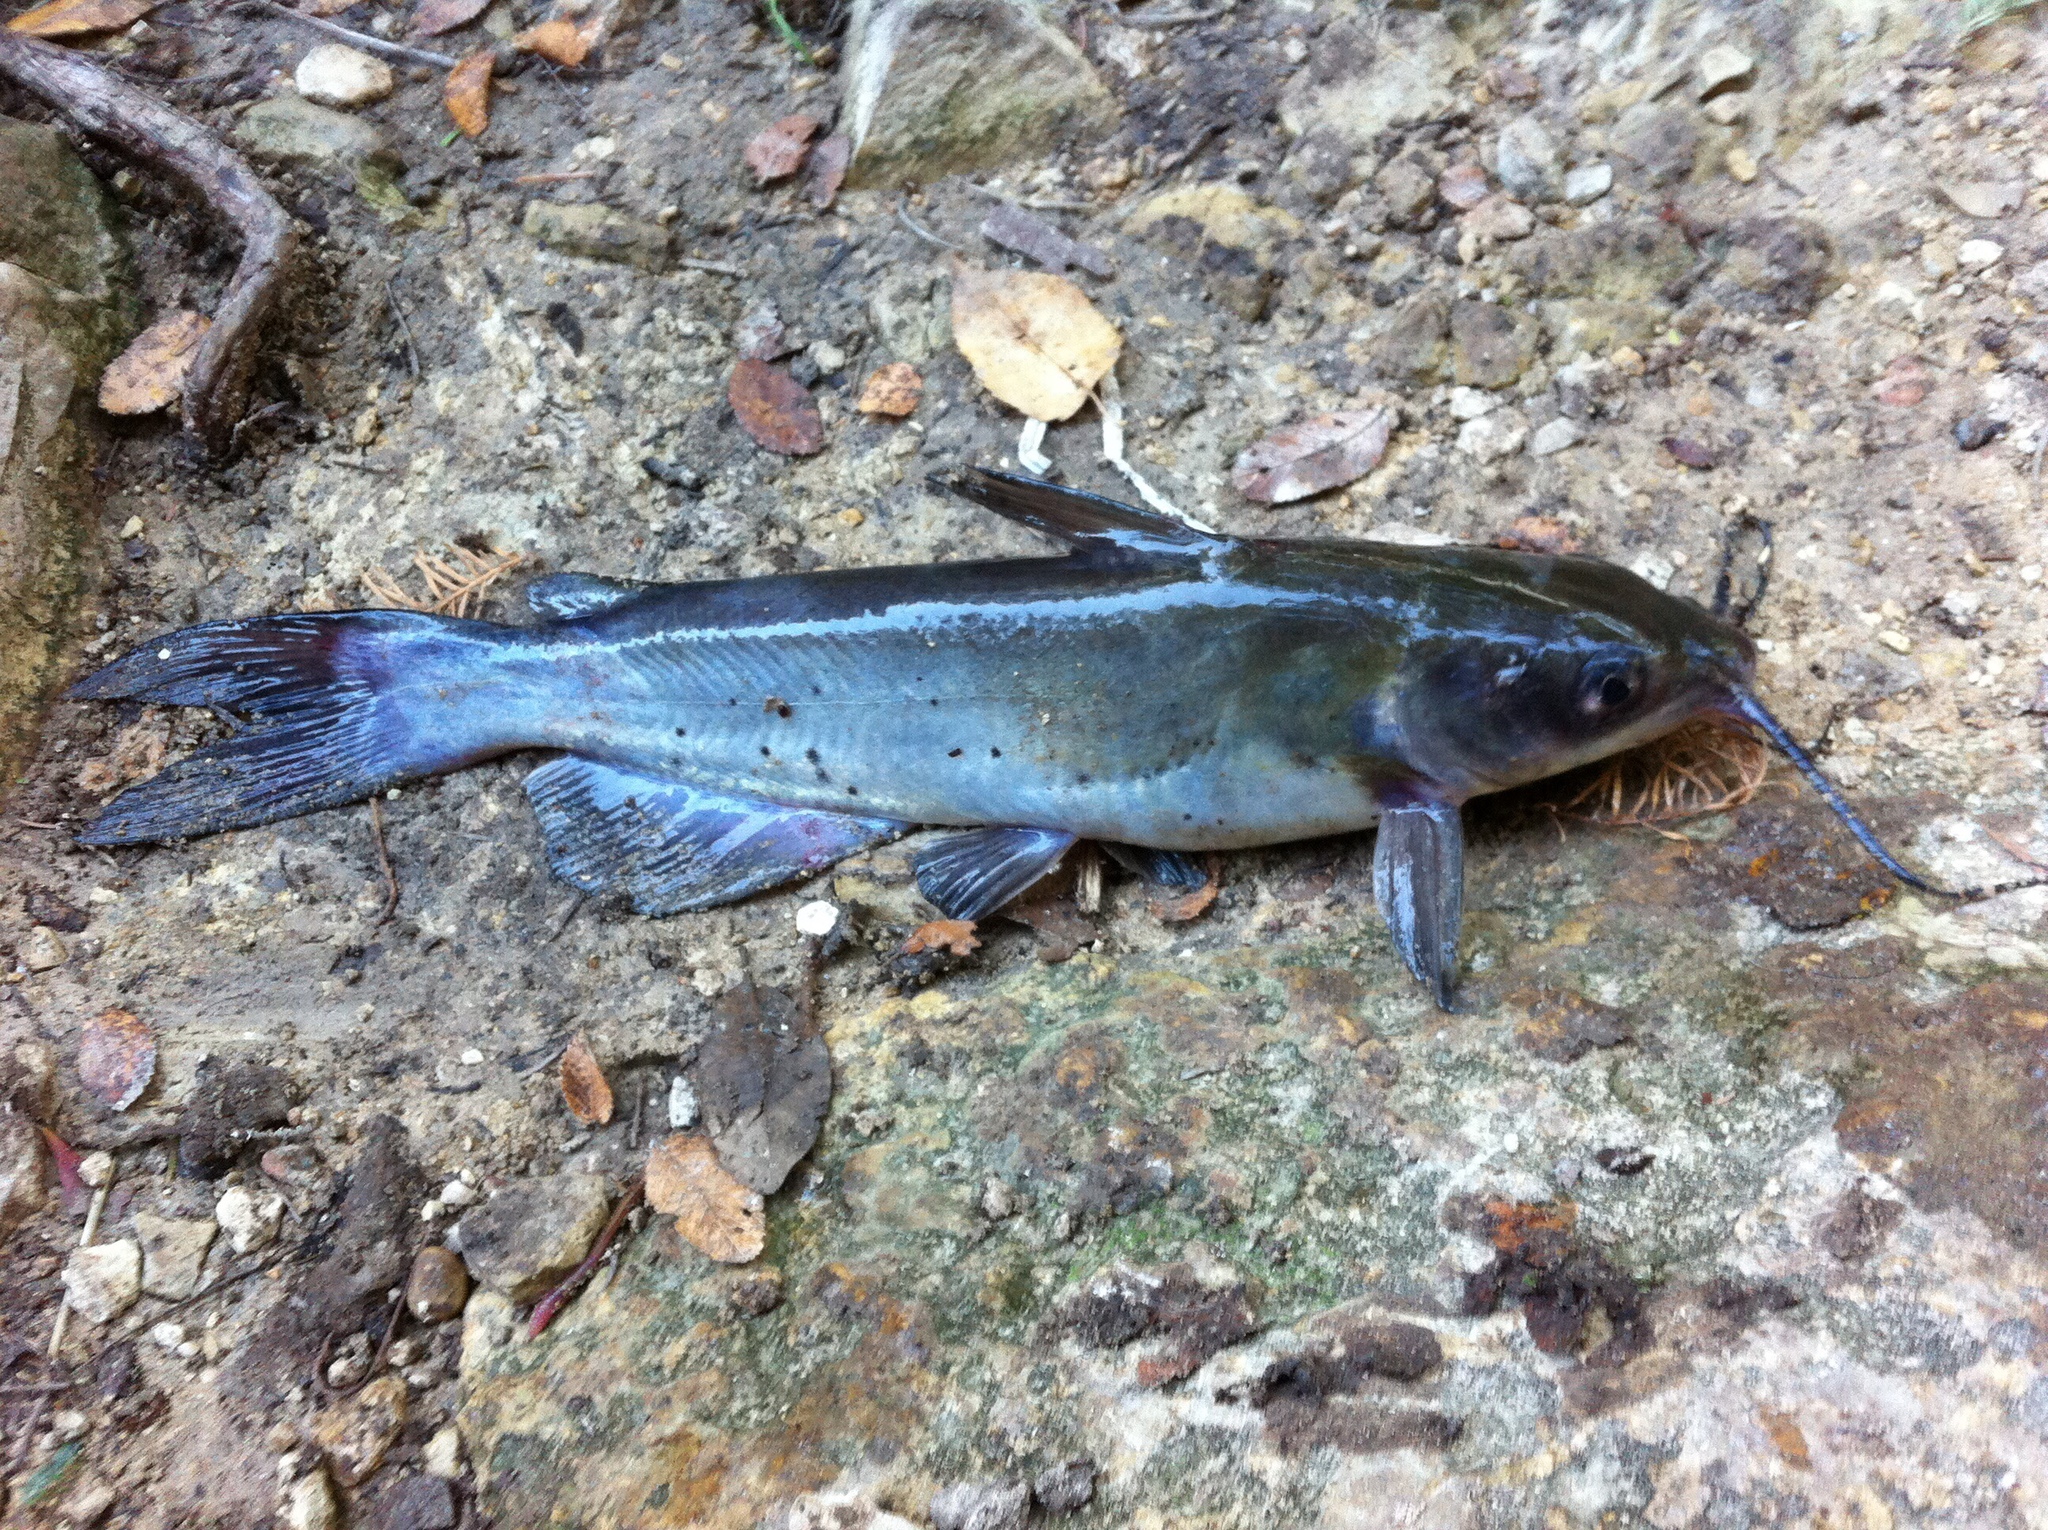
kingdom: Animalia
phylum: Chordata
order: Siluriformes
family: Ictaluridae
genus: Ictalurus
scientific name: Ictalurus punctatus
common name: Channel catfish
